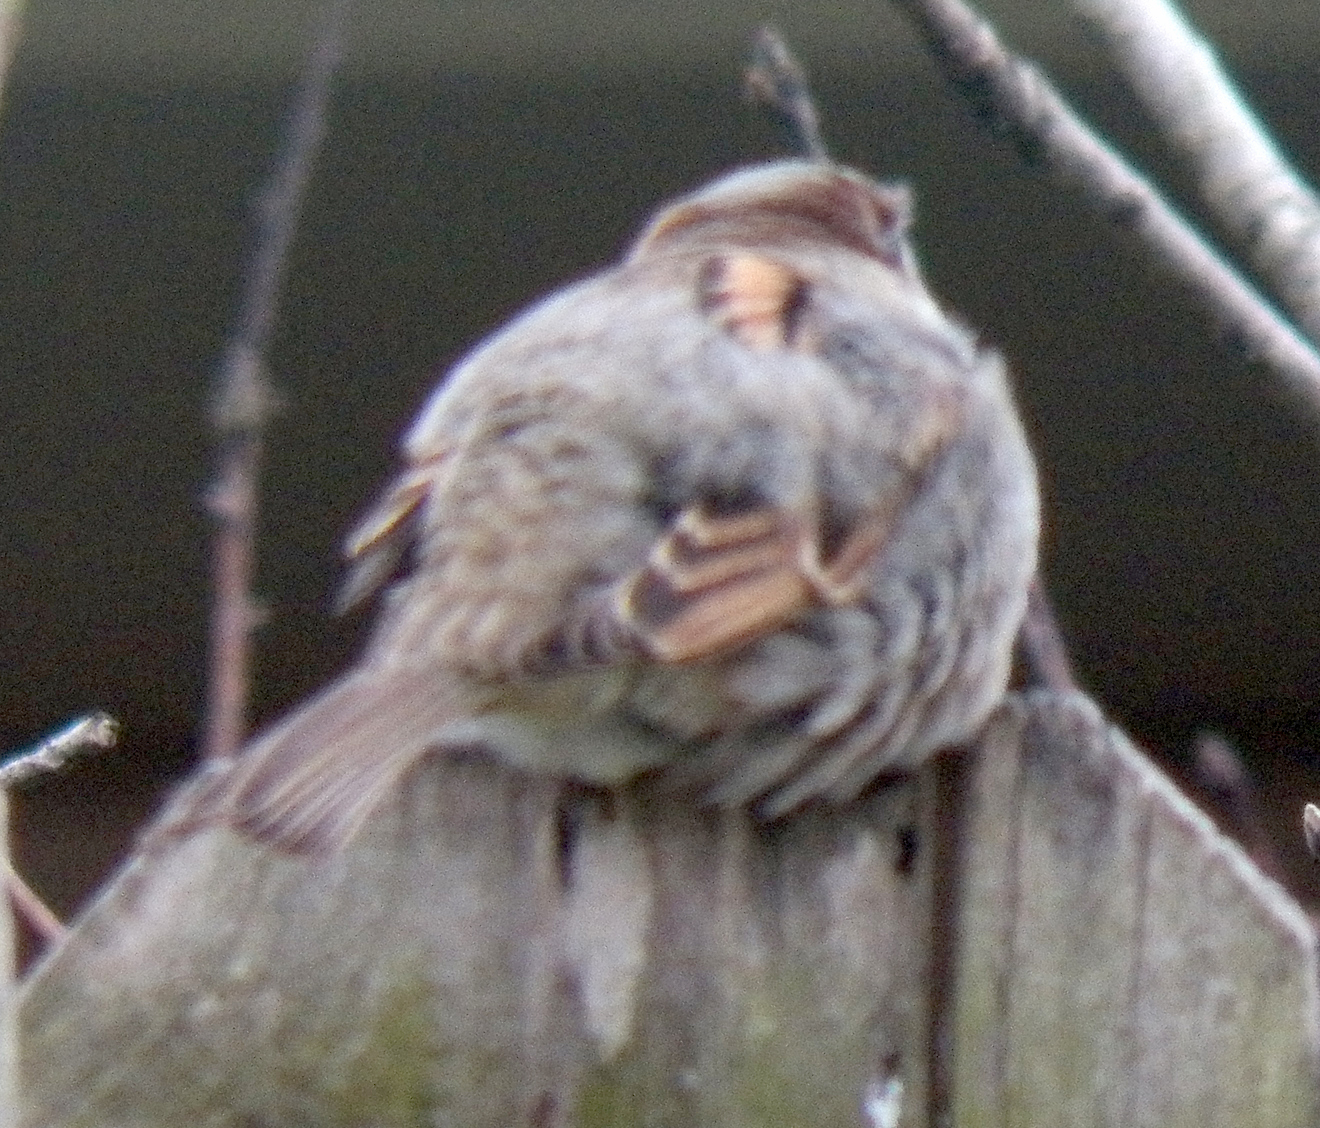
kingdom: Animalia
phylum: Chordata
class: Aves
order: Passeriformes
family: Passeridae
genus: Passer
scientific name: Passer domesticus
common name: House sparrow
